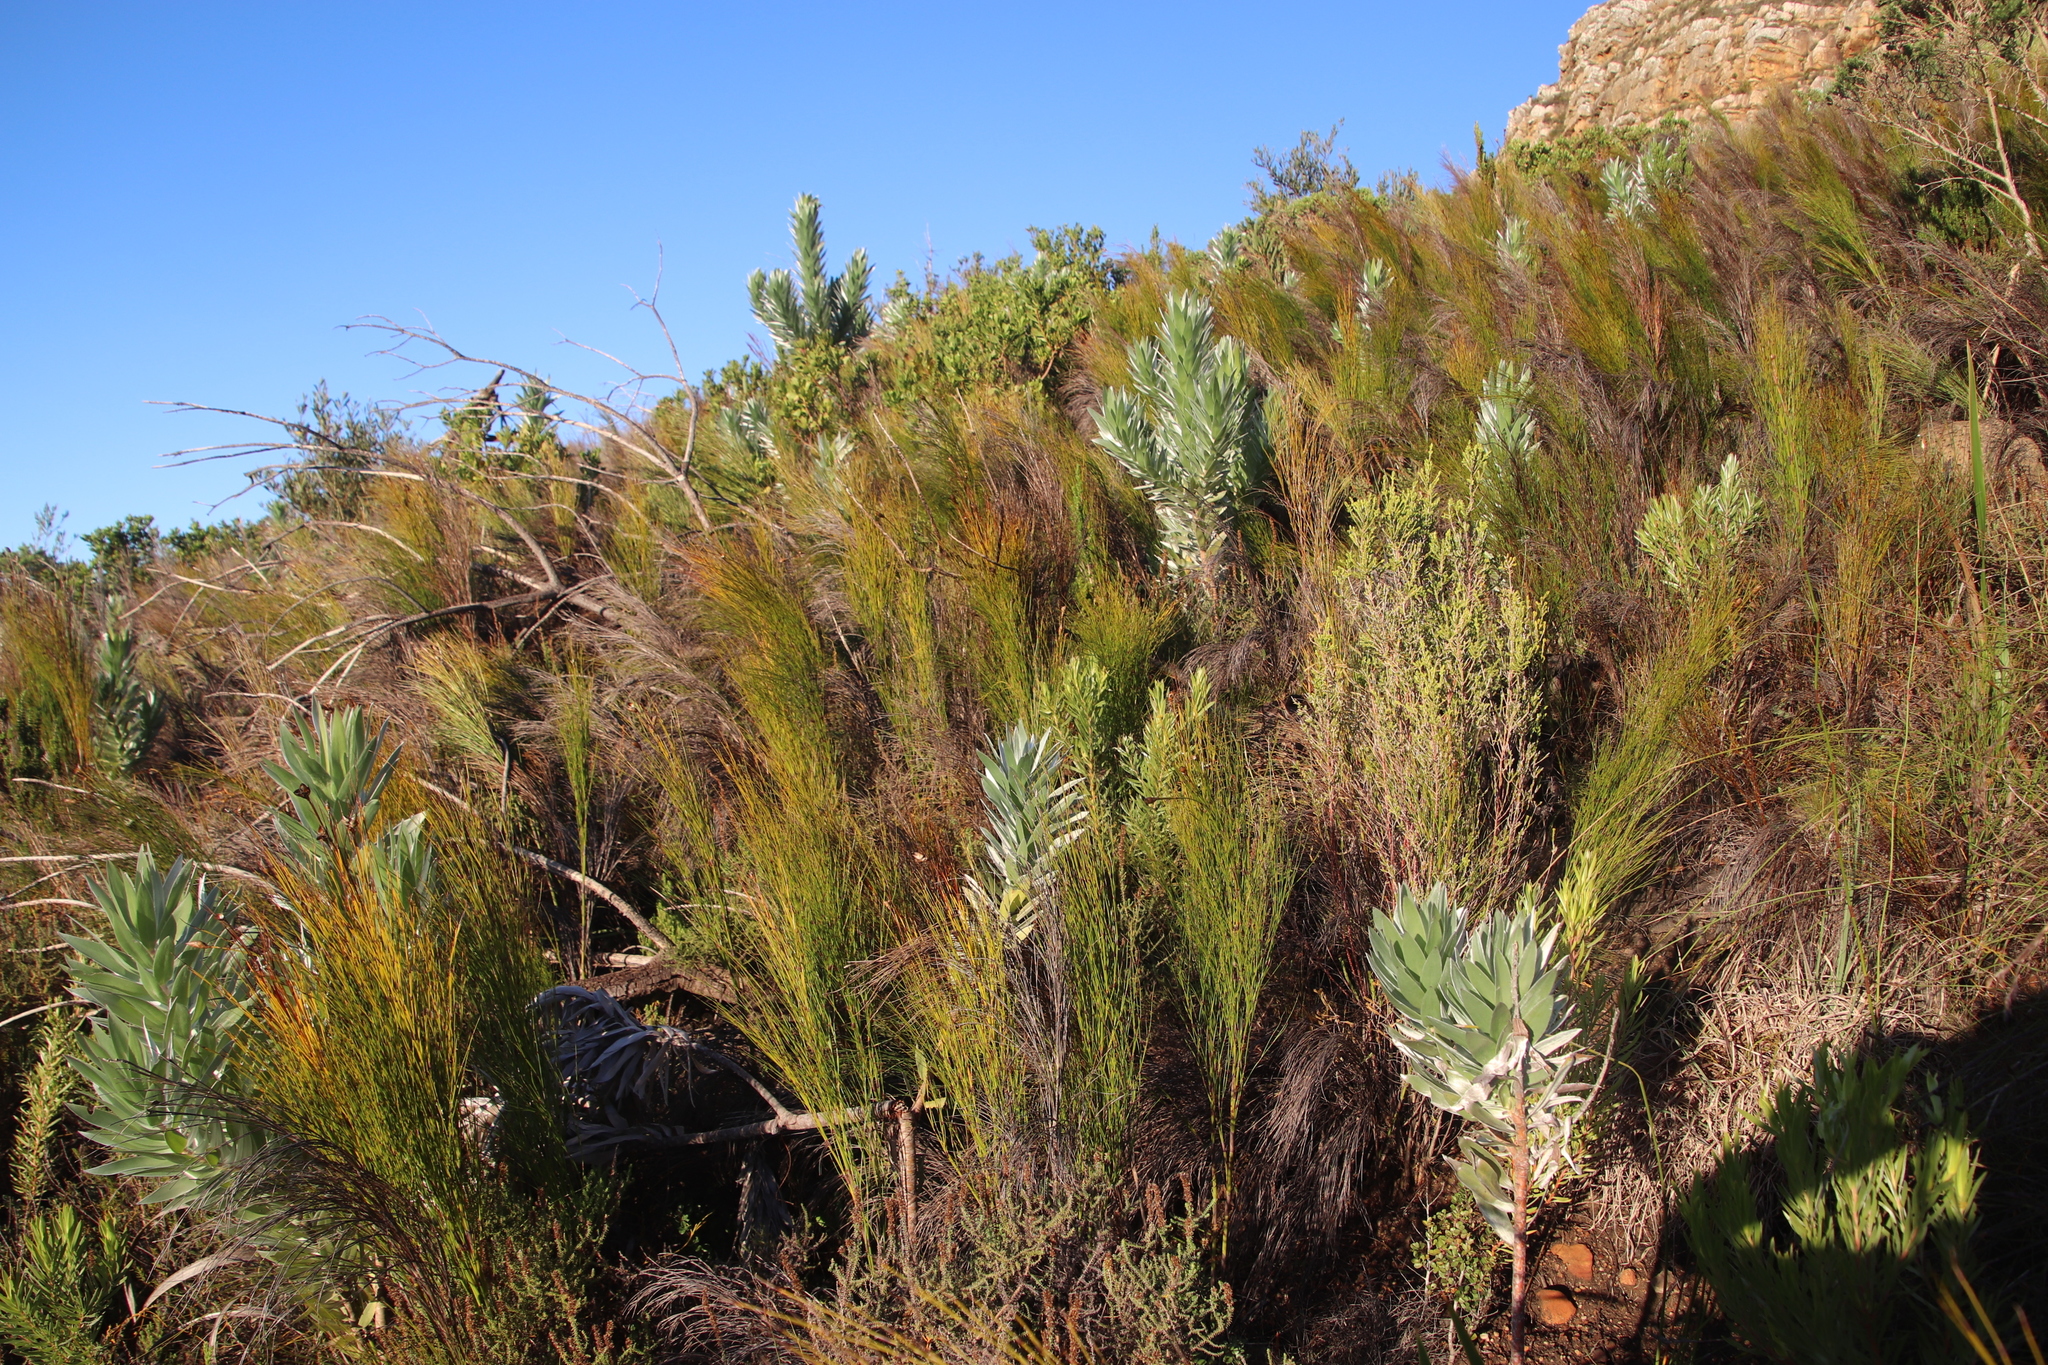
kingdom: Plantae
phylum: Tracheophyta
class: Magnoliopsida
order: Proteales
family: Proteaceae
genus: Leucadendron
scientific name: Leucadendron argenteum
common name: Cape silver tree
